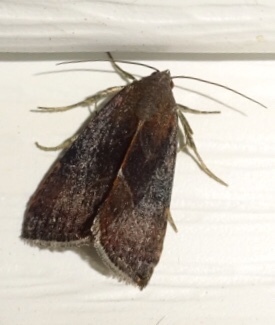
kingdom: Animalia
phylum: Arthropoda
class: Insecta
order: Lepidoptera
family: Noctuidae
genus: Galgula
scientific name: Galgula partita
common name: Wedgeling
